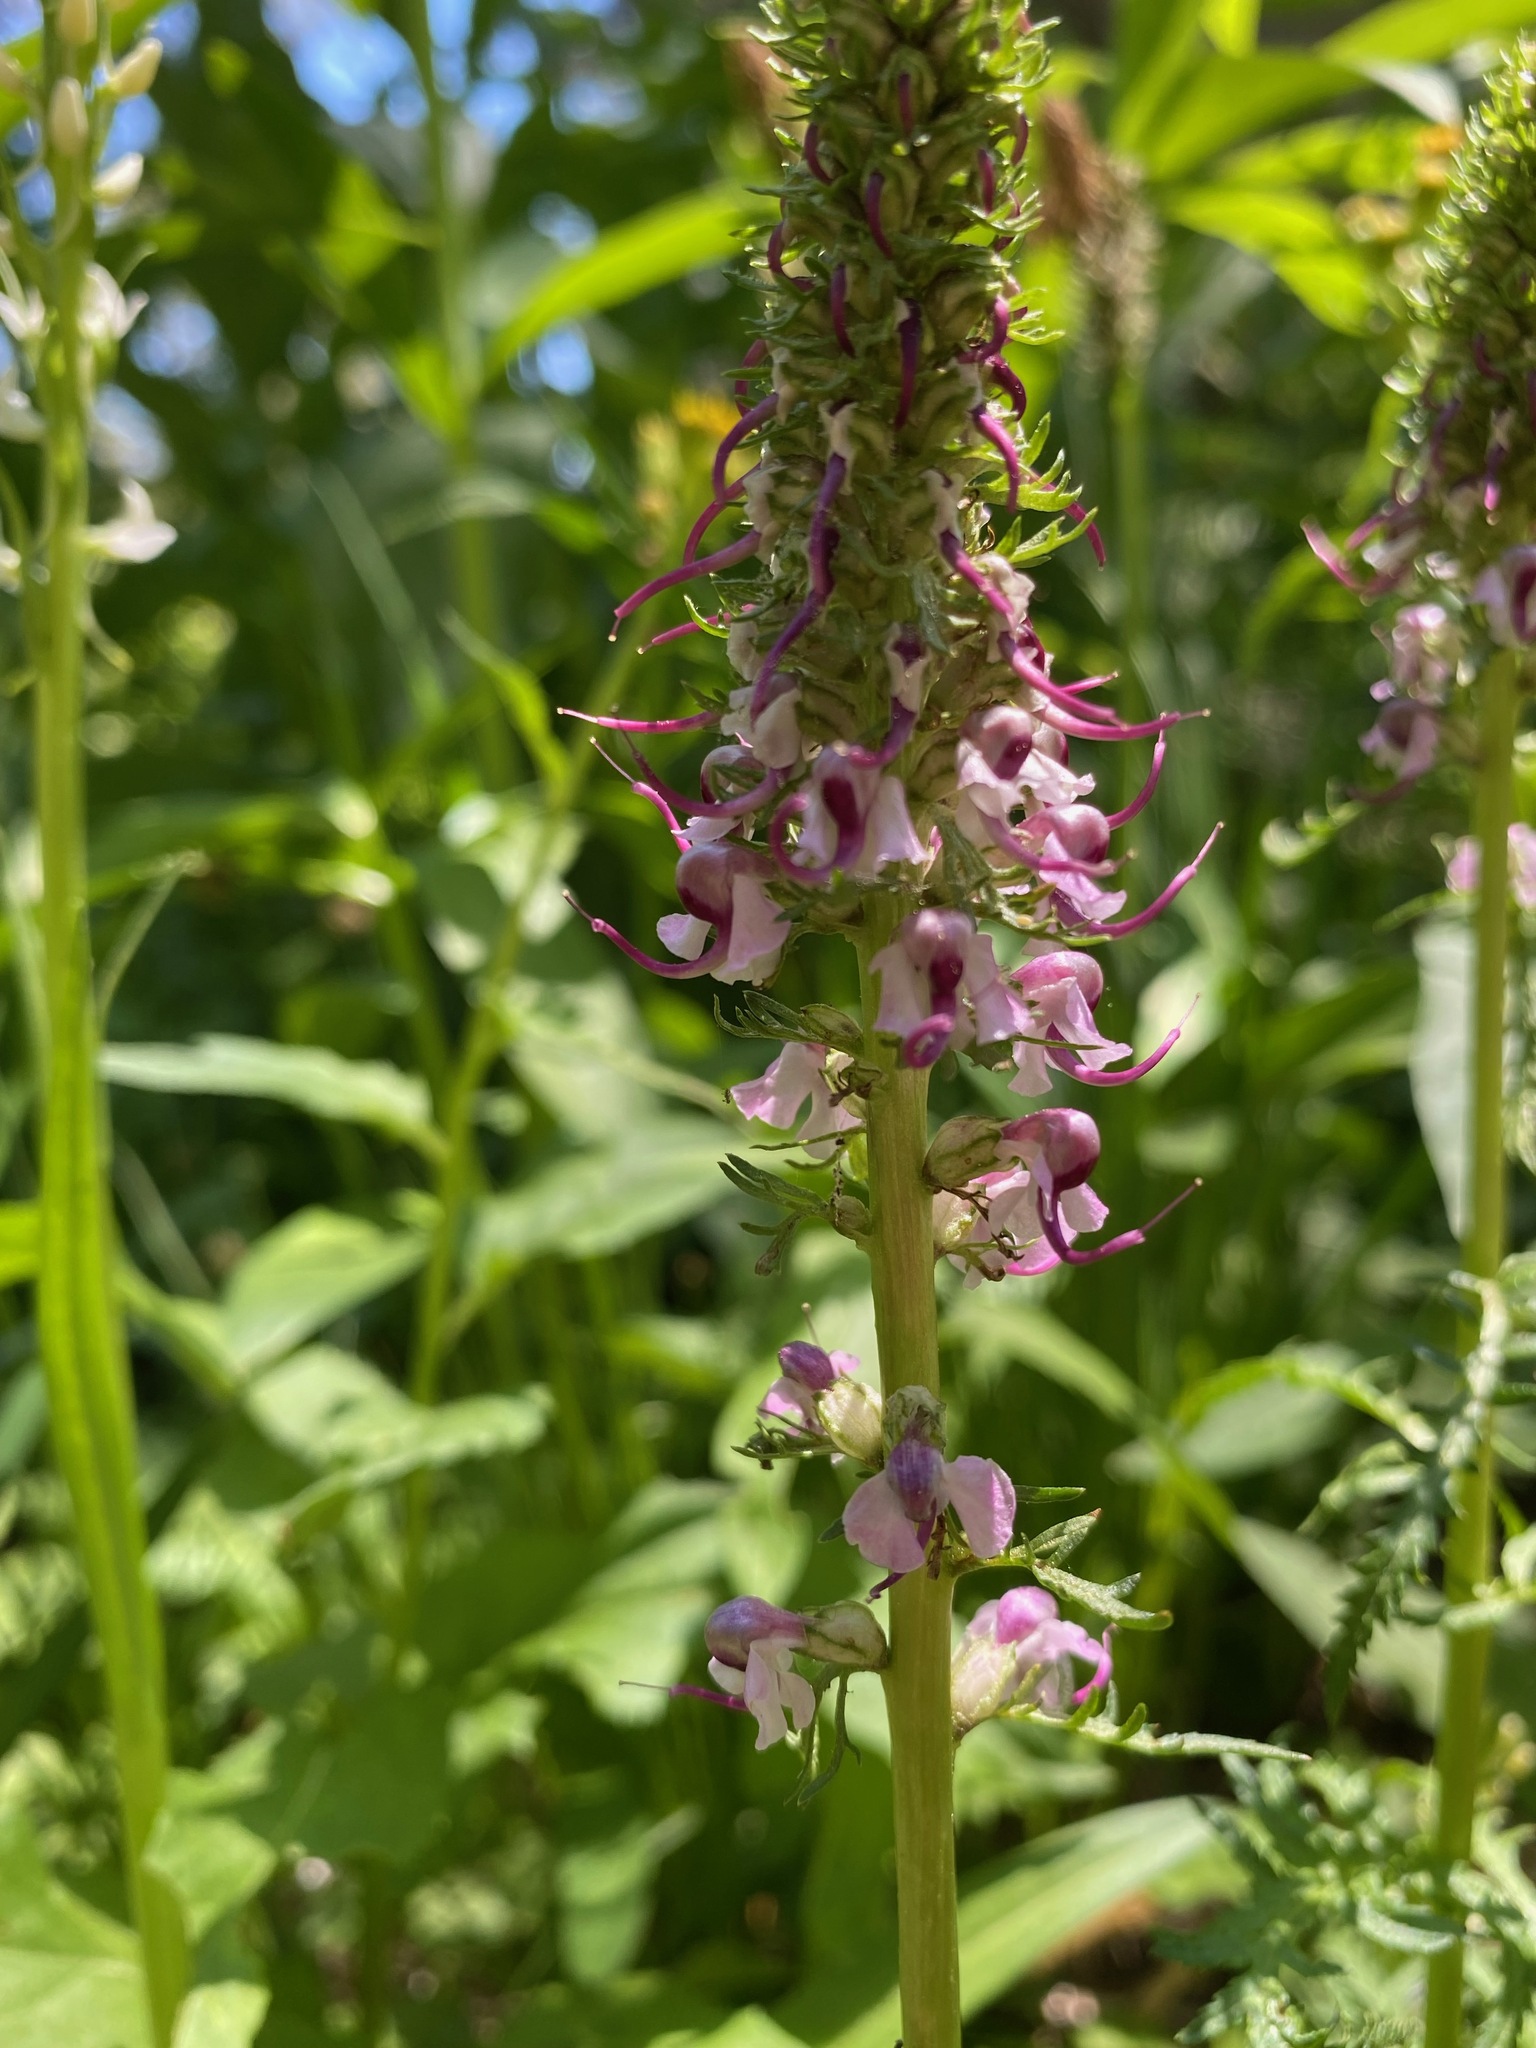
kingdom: Plantae
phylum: Tracheophyta
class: Magnoliopsida
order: Lamiales
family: Orobanchaceae
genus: Pedicularis
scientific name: Pedicularis groenlandica
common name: Elephant's-head
